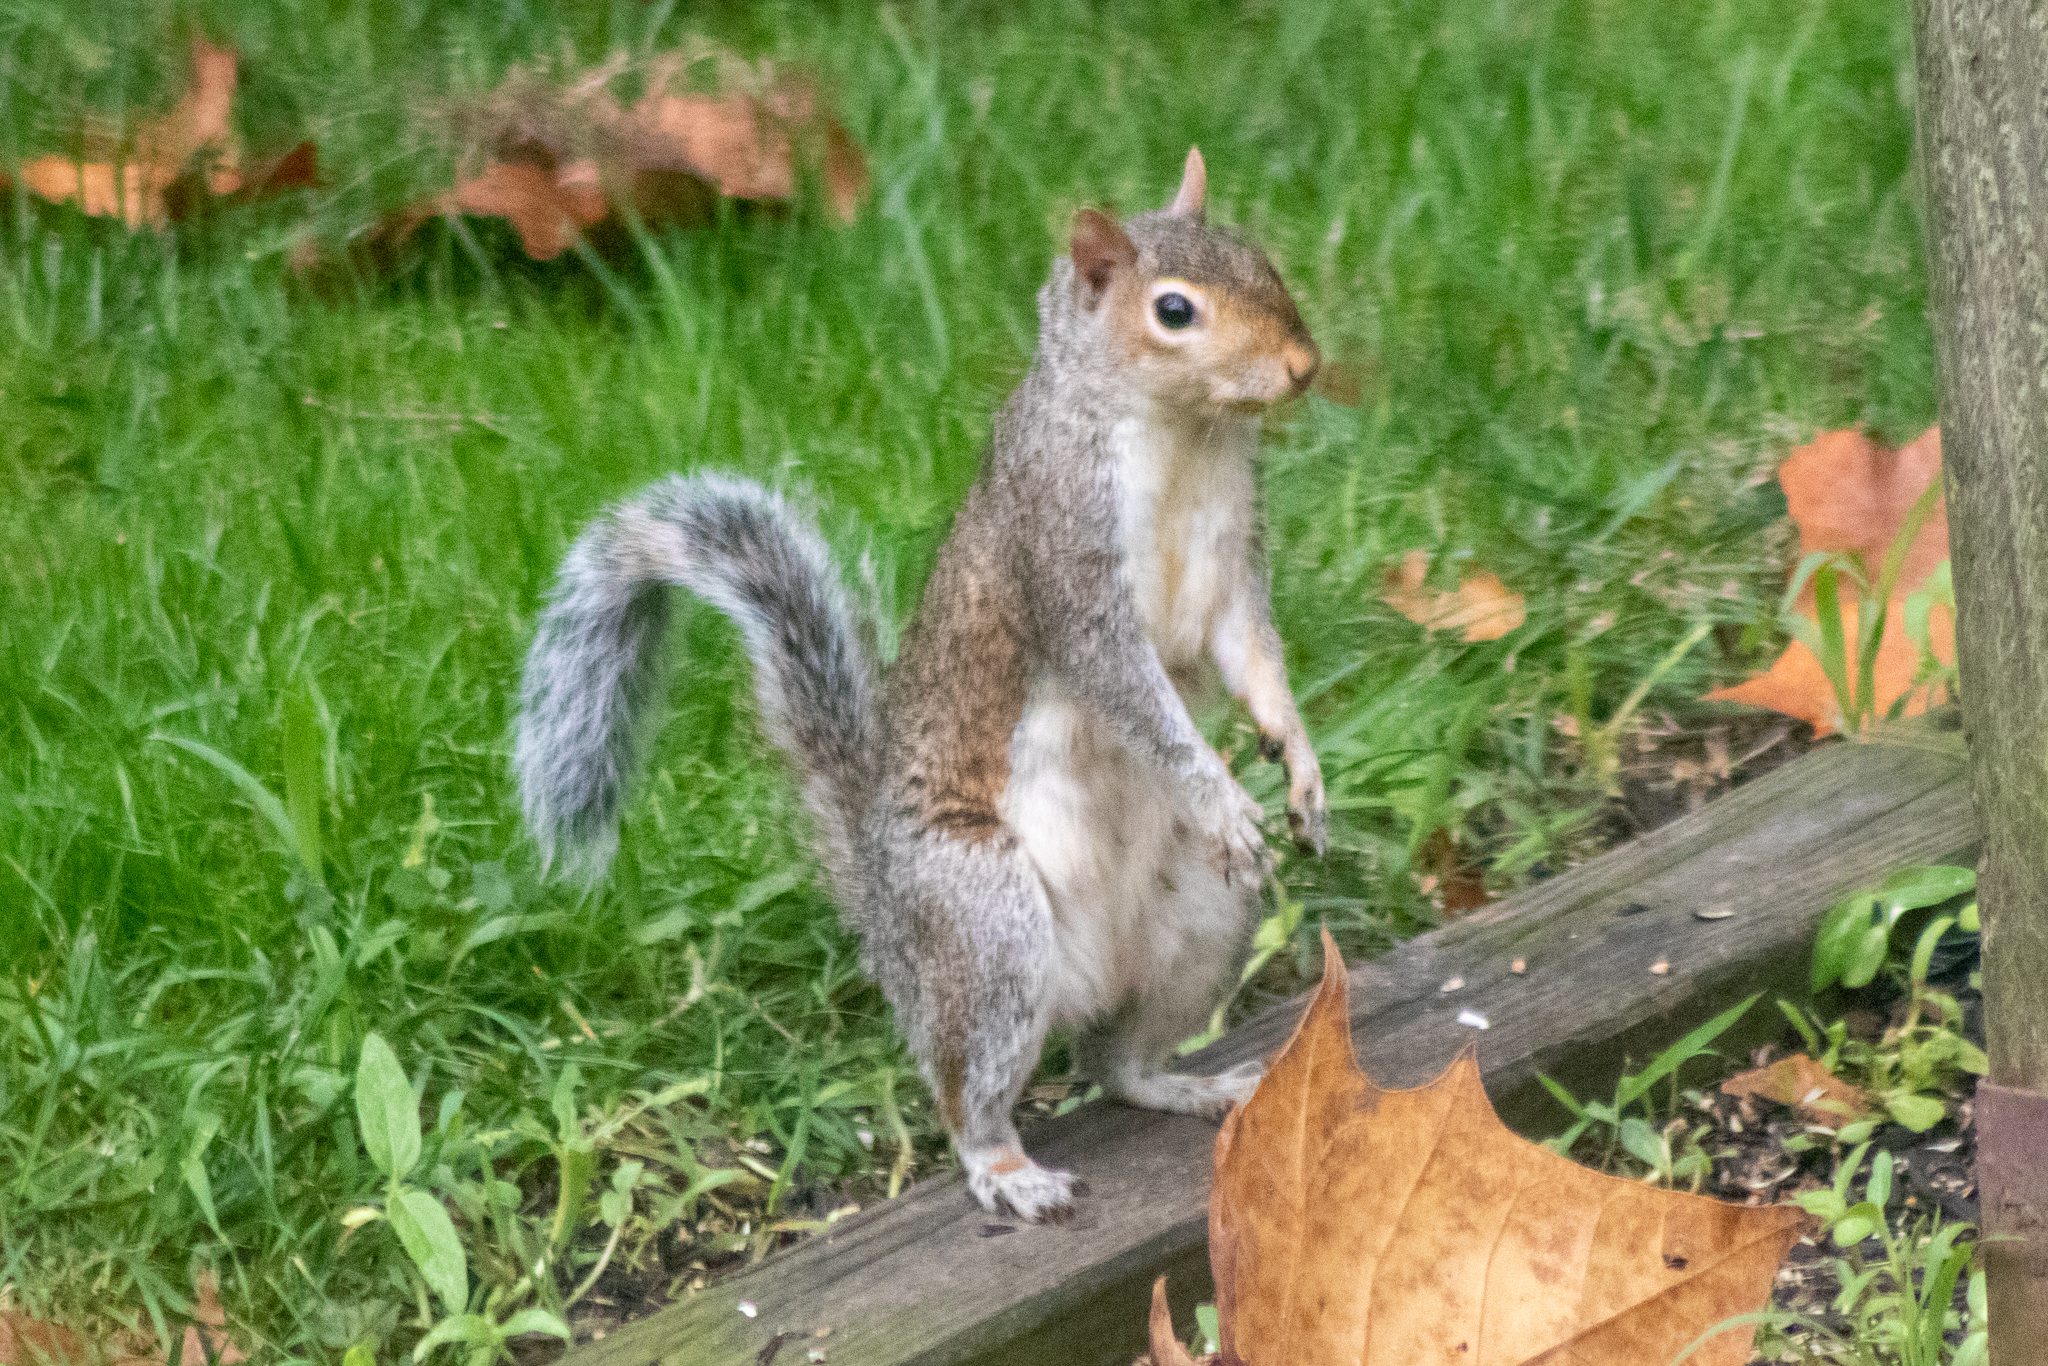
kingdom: Animalia
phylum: Chordata
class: Mammalia
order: Rodentia
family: Sciuridae
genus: Sciurus
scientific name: Sciurus carolinensis
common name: Eastern gray squirrel
